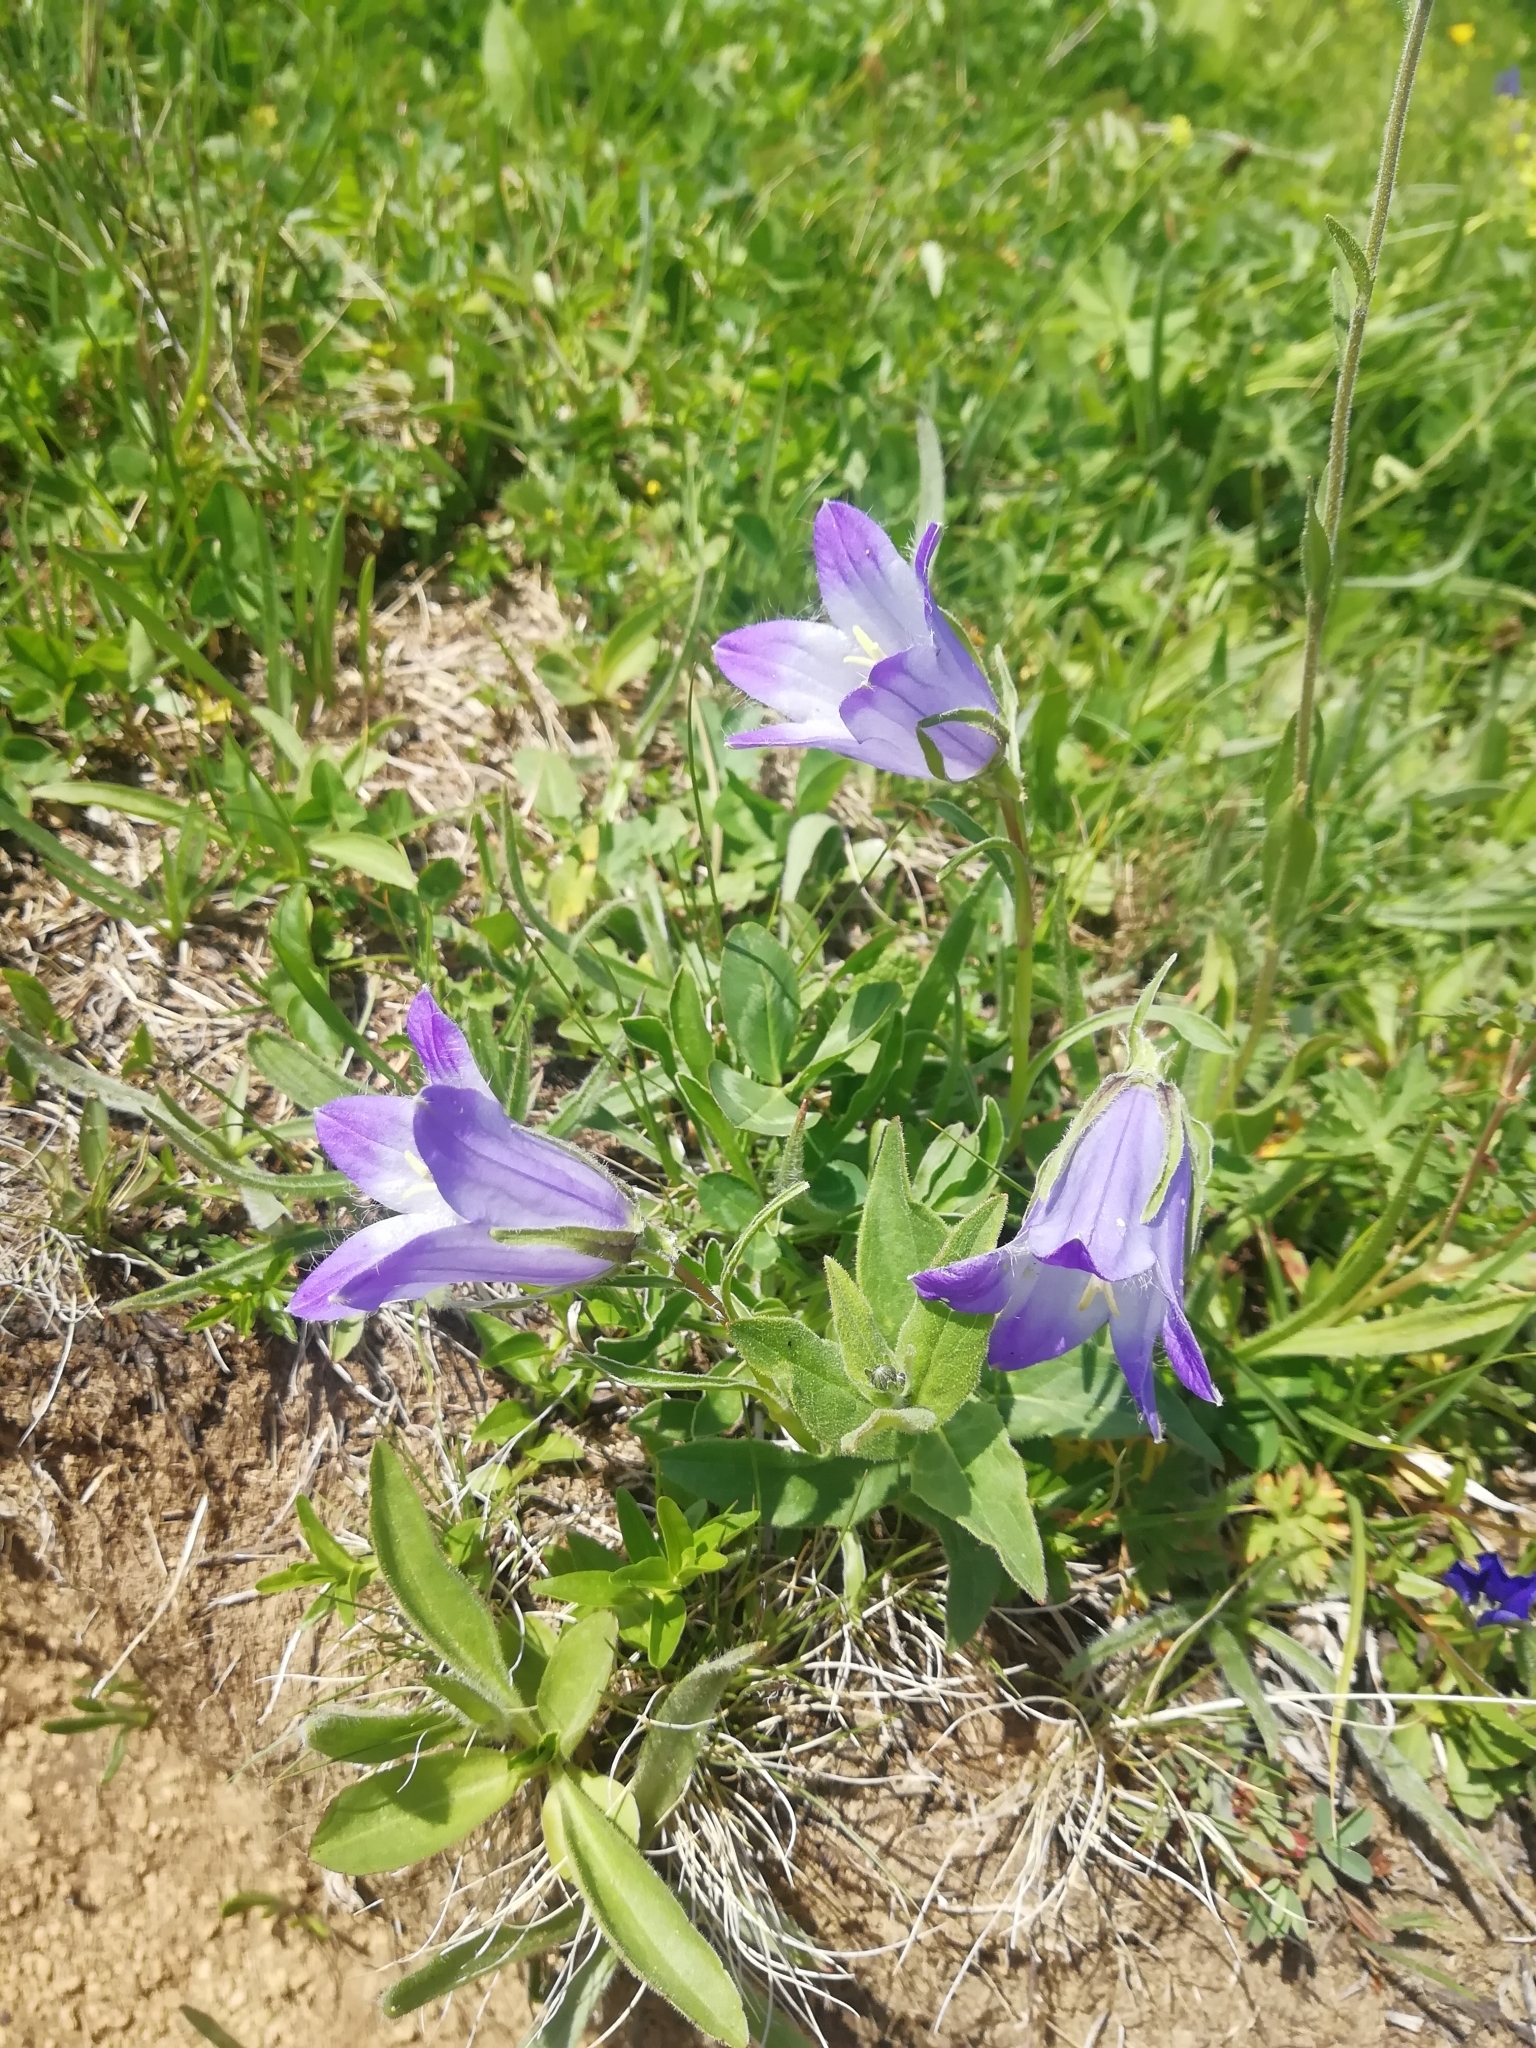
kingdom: Plantae
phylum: Tracheophyta
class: Magnoliopsida
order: Asterales
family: Campanulaceae
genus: Campanula
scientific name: Campanula tridentata
